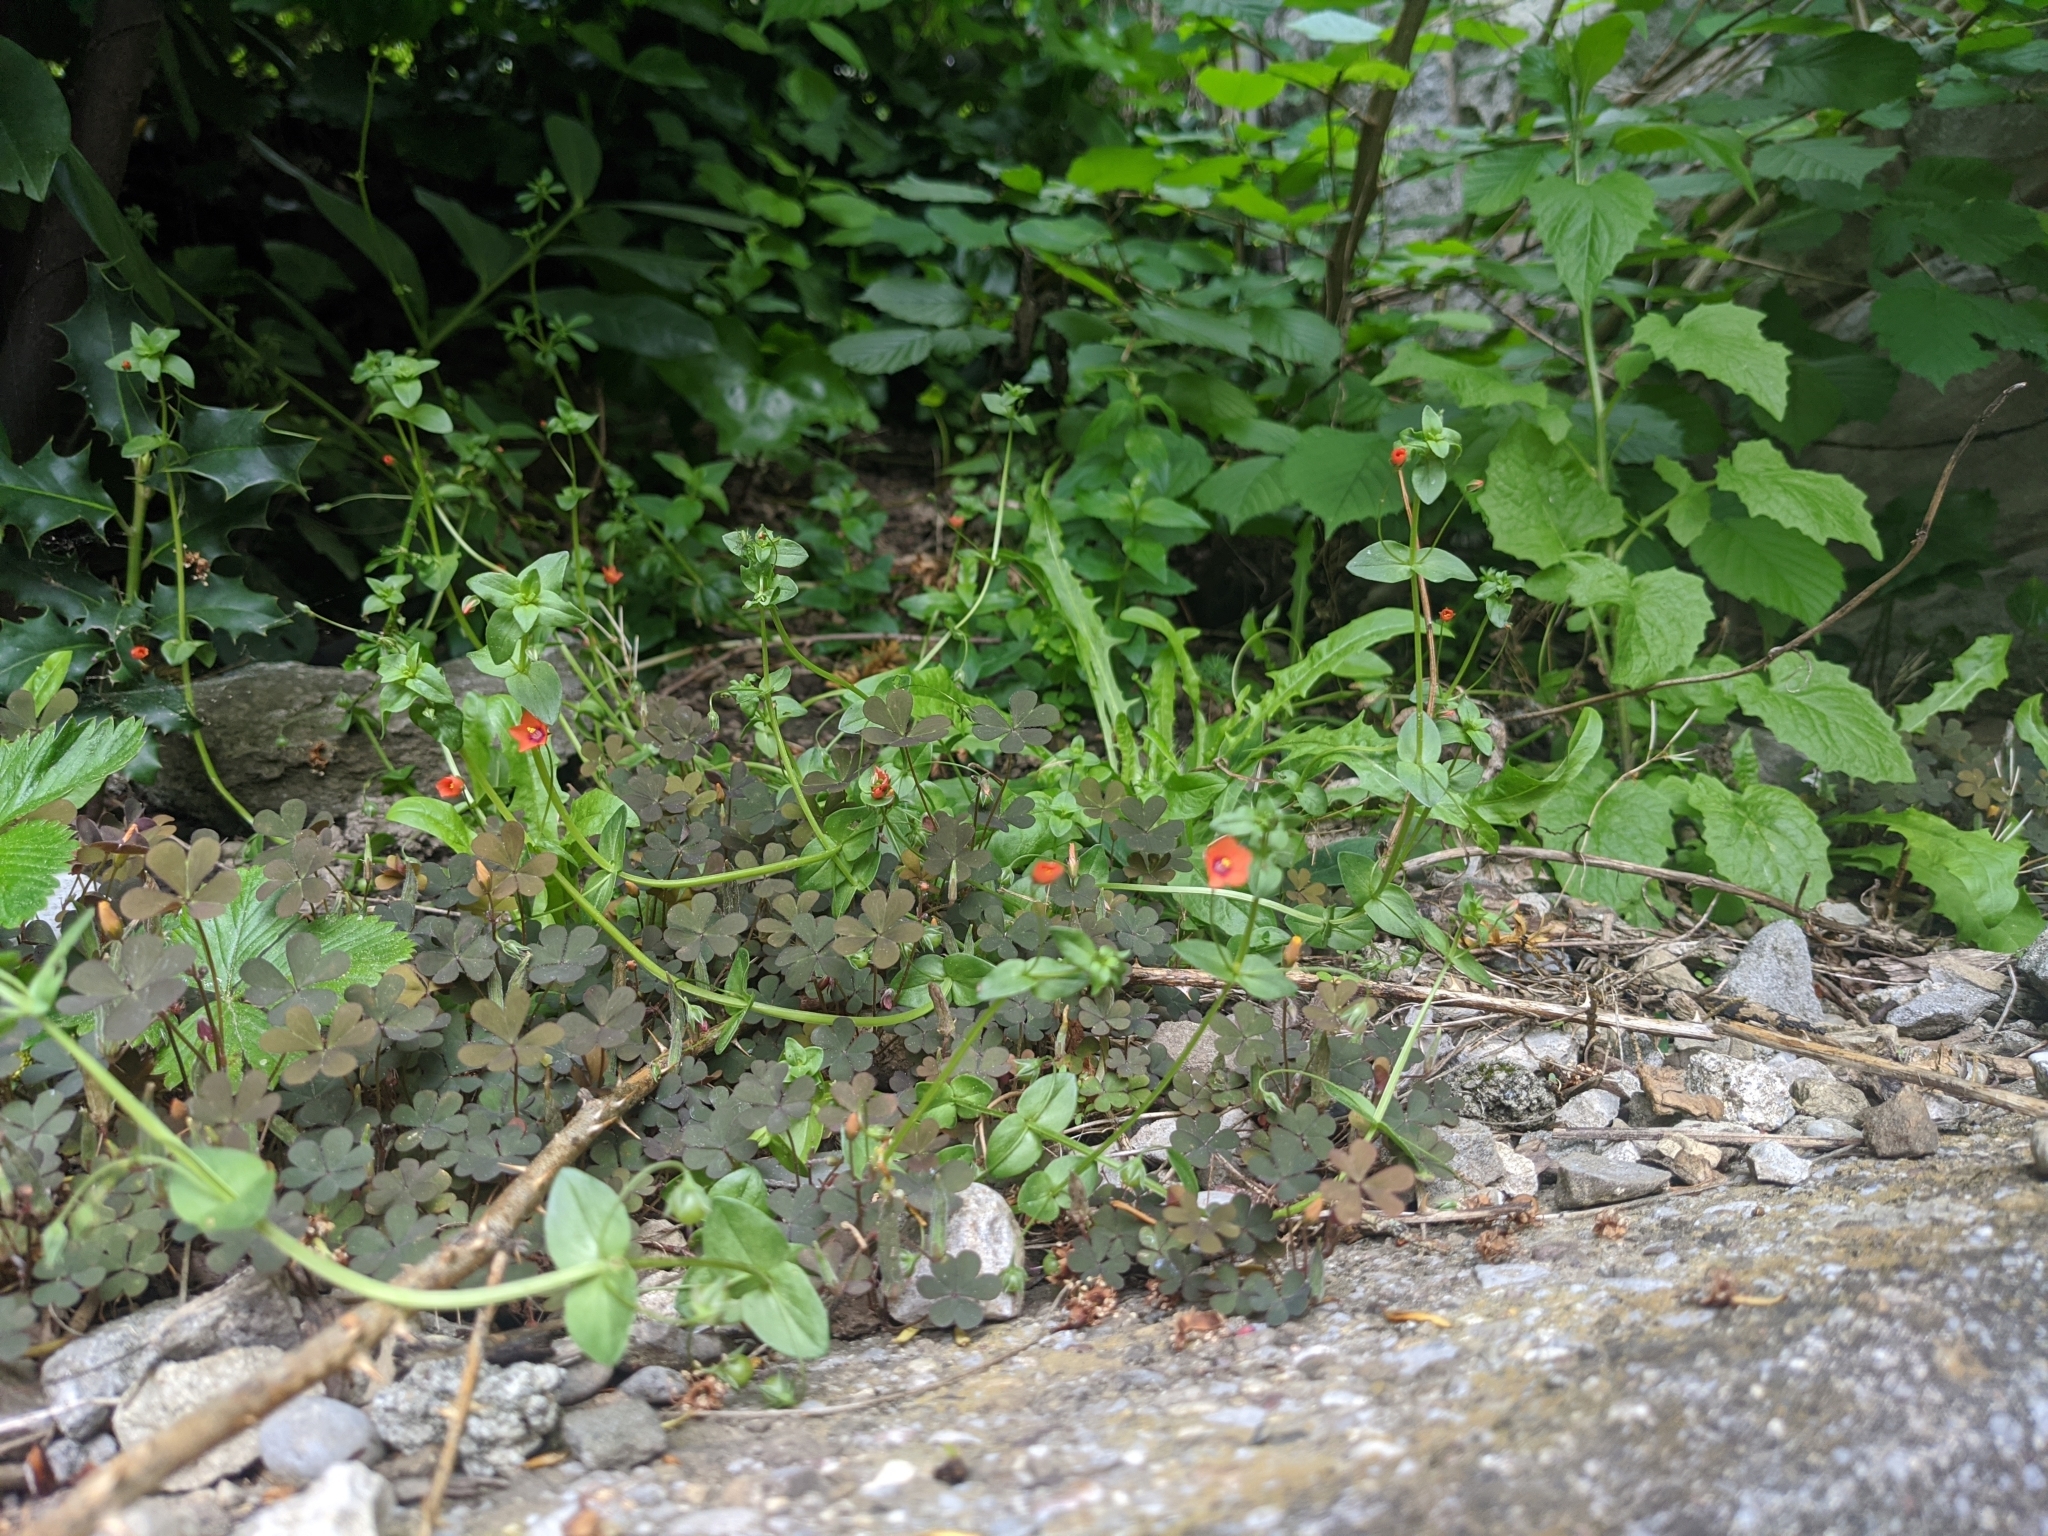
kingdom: Plantae
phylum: Tracheophyta
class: Magnoliopsida
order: Ericales
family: Primulaceae
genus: Lysimachia
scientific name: Lysimachia arvensis
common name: Scarlet pimpernel
